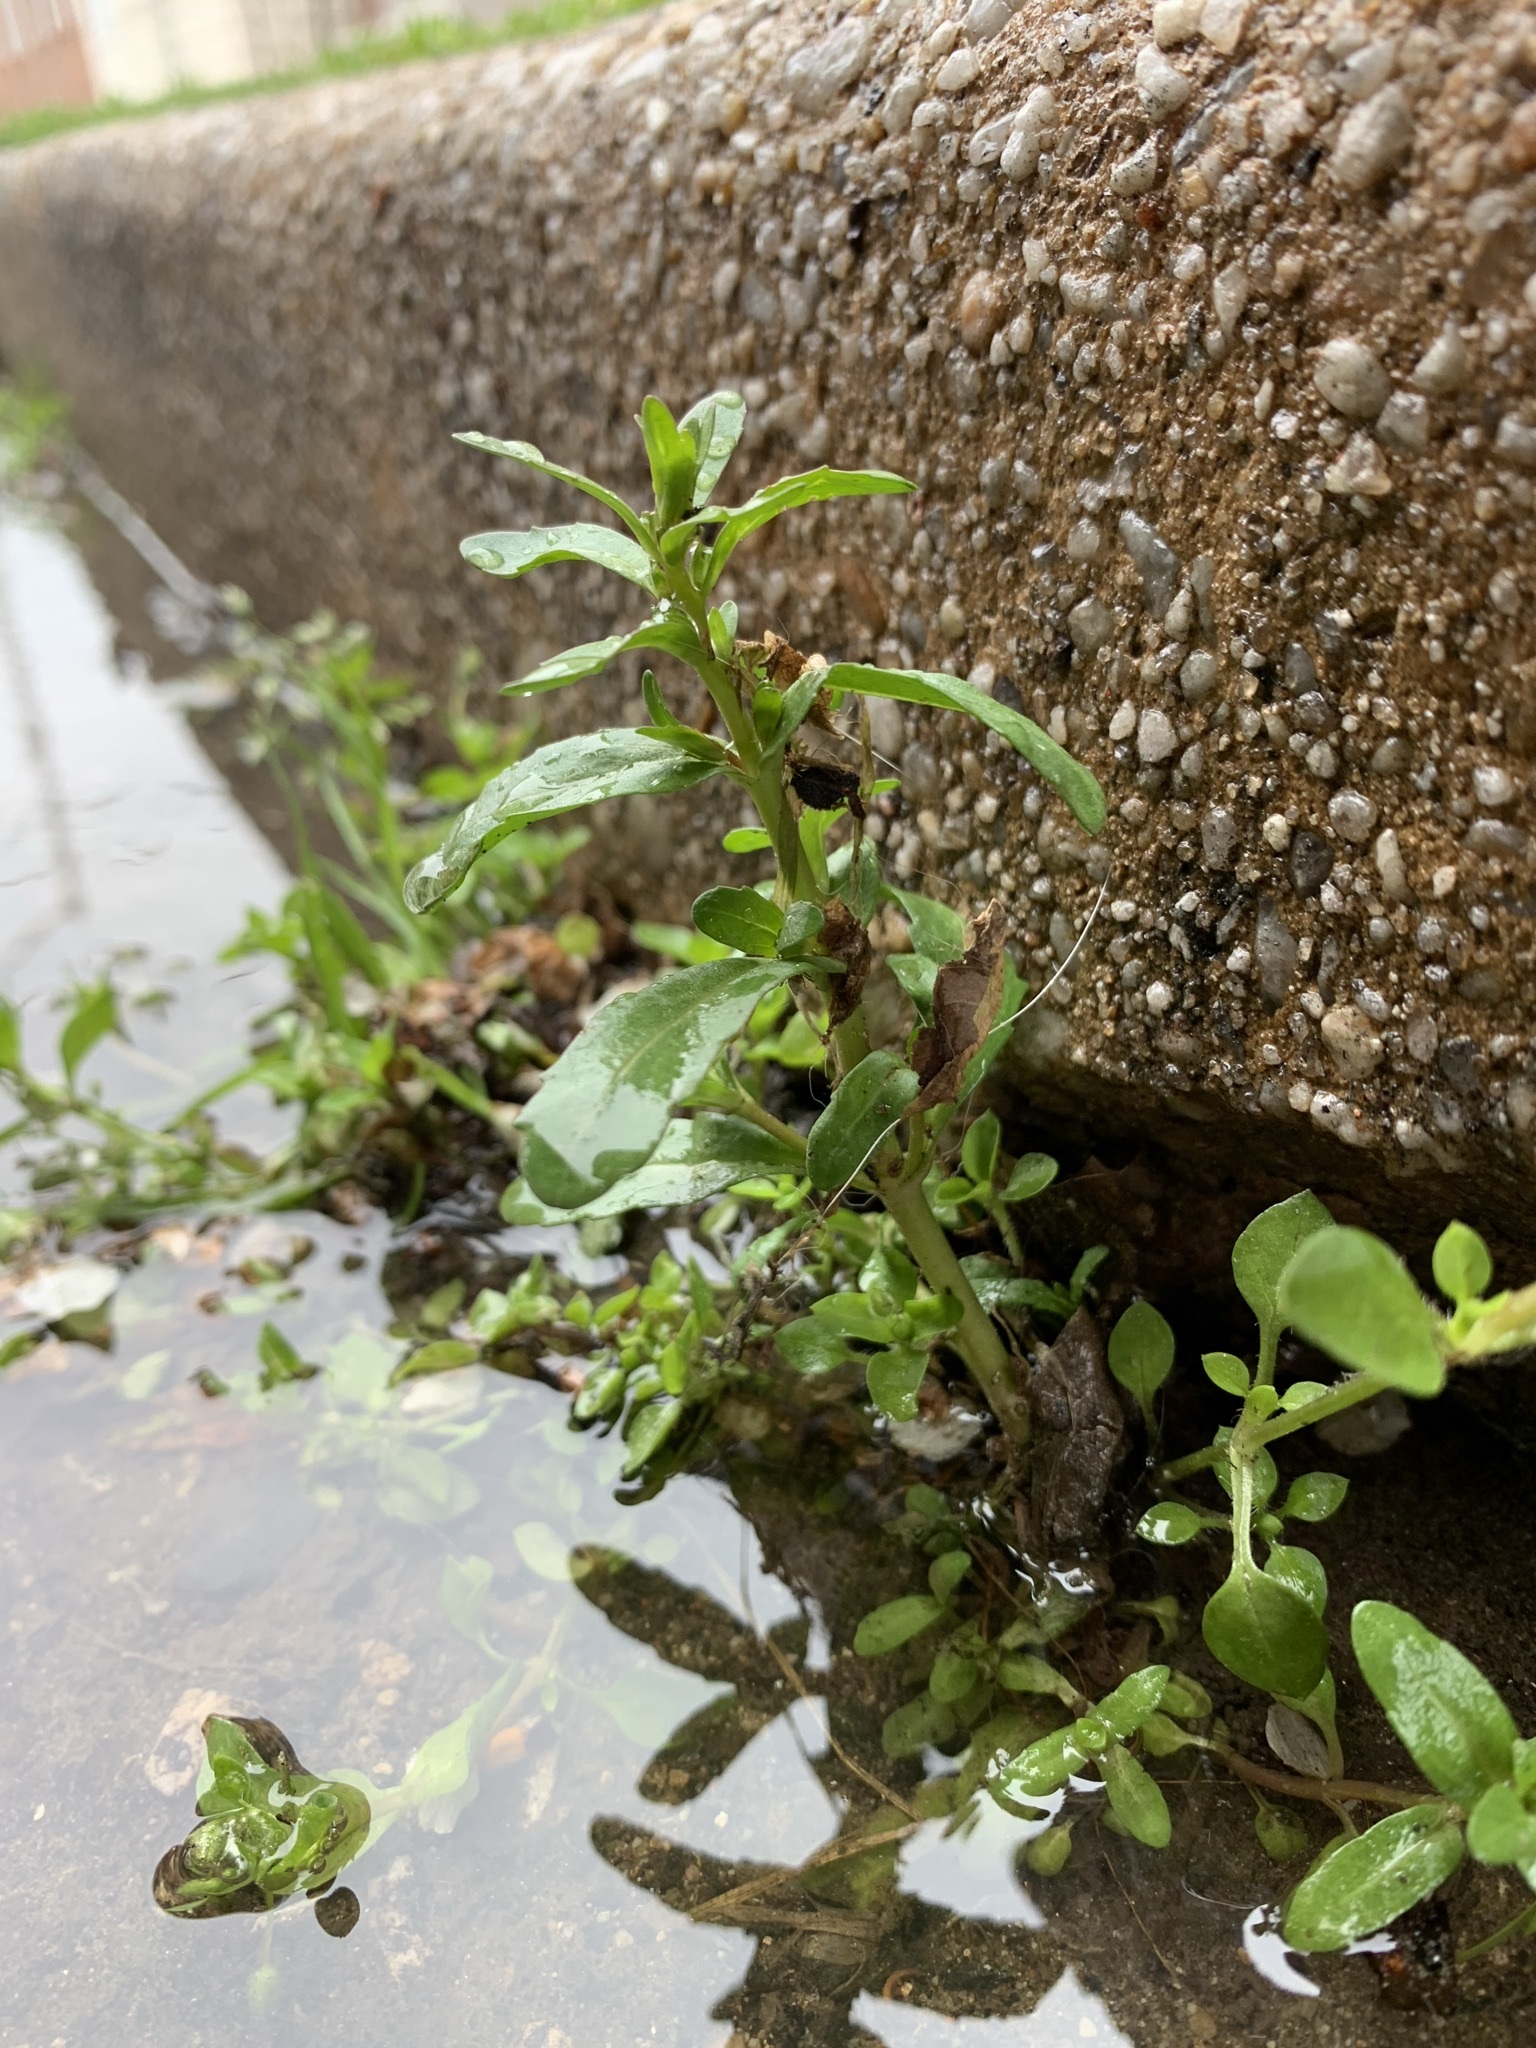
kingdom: Plantae
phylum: Tracheophyta
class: Magnoliopsida
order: Lamiales
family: Plantaginaceae
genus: Veronica
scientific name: Veronica peregrina
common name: Neckweed
